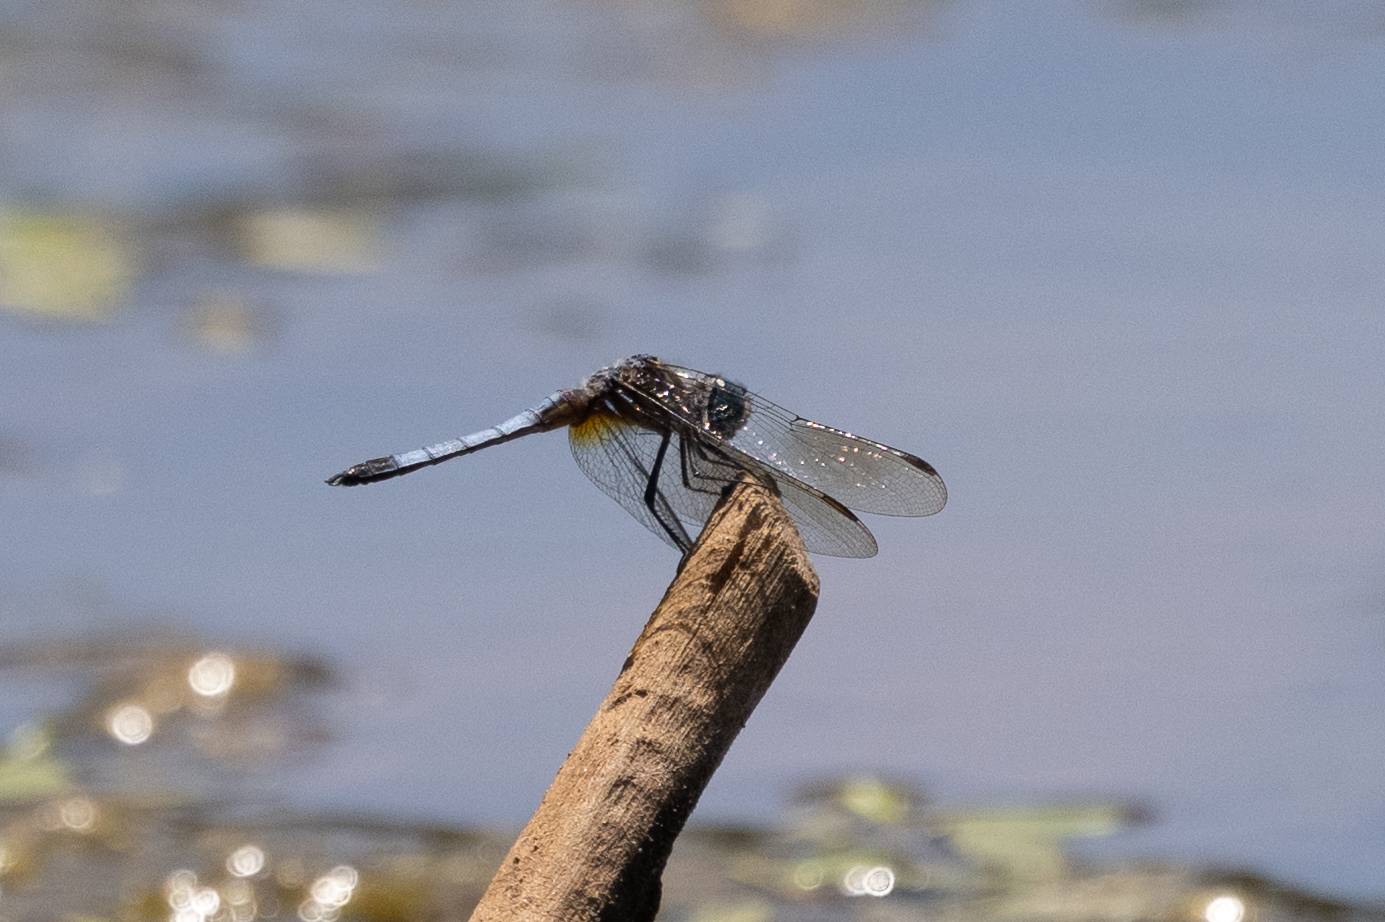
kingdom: Animalia
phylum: Arthropoda
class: Insecta
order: Odonata
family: Libellulidae
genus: Pachydiplax
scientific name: Pachydiplax longipennis
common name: Blue dasher
